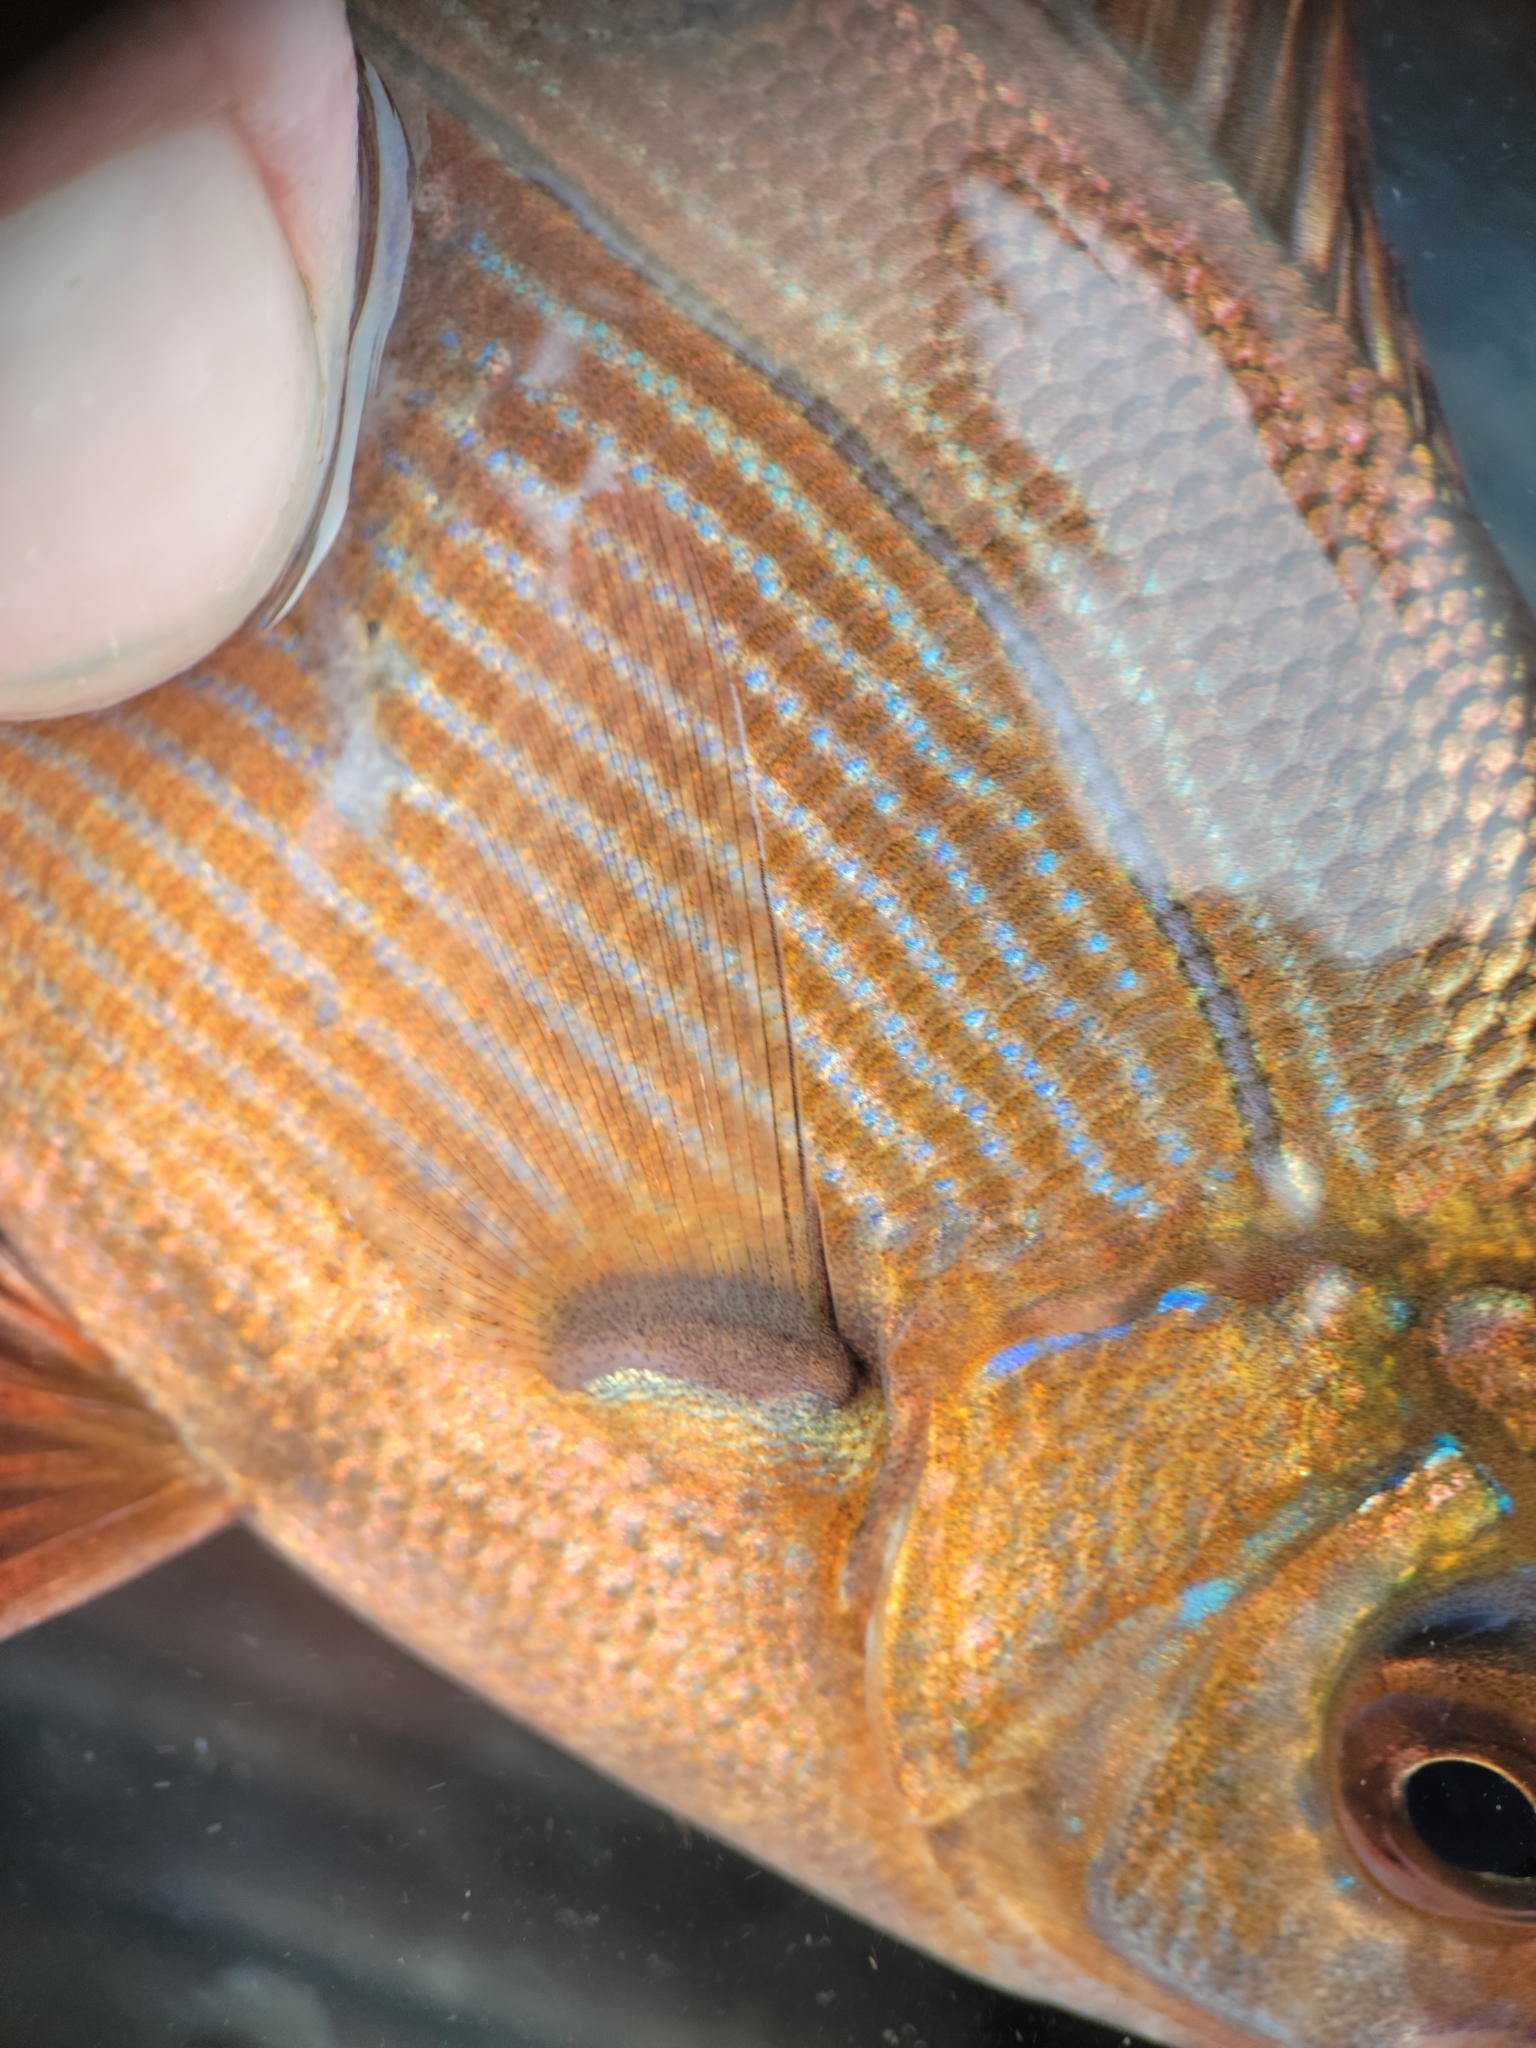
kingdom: Animalia
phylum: Chordata
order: Perciformes
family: Embiotocidae
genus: Embiotoca
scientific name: Embiotoca lateralis
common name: Striped surfperch
